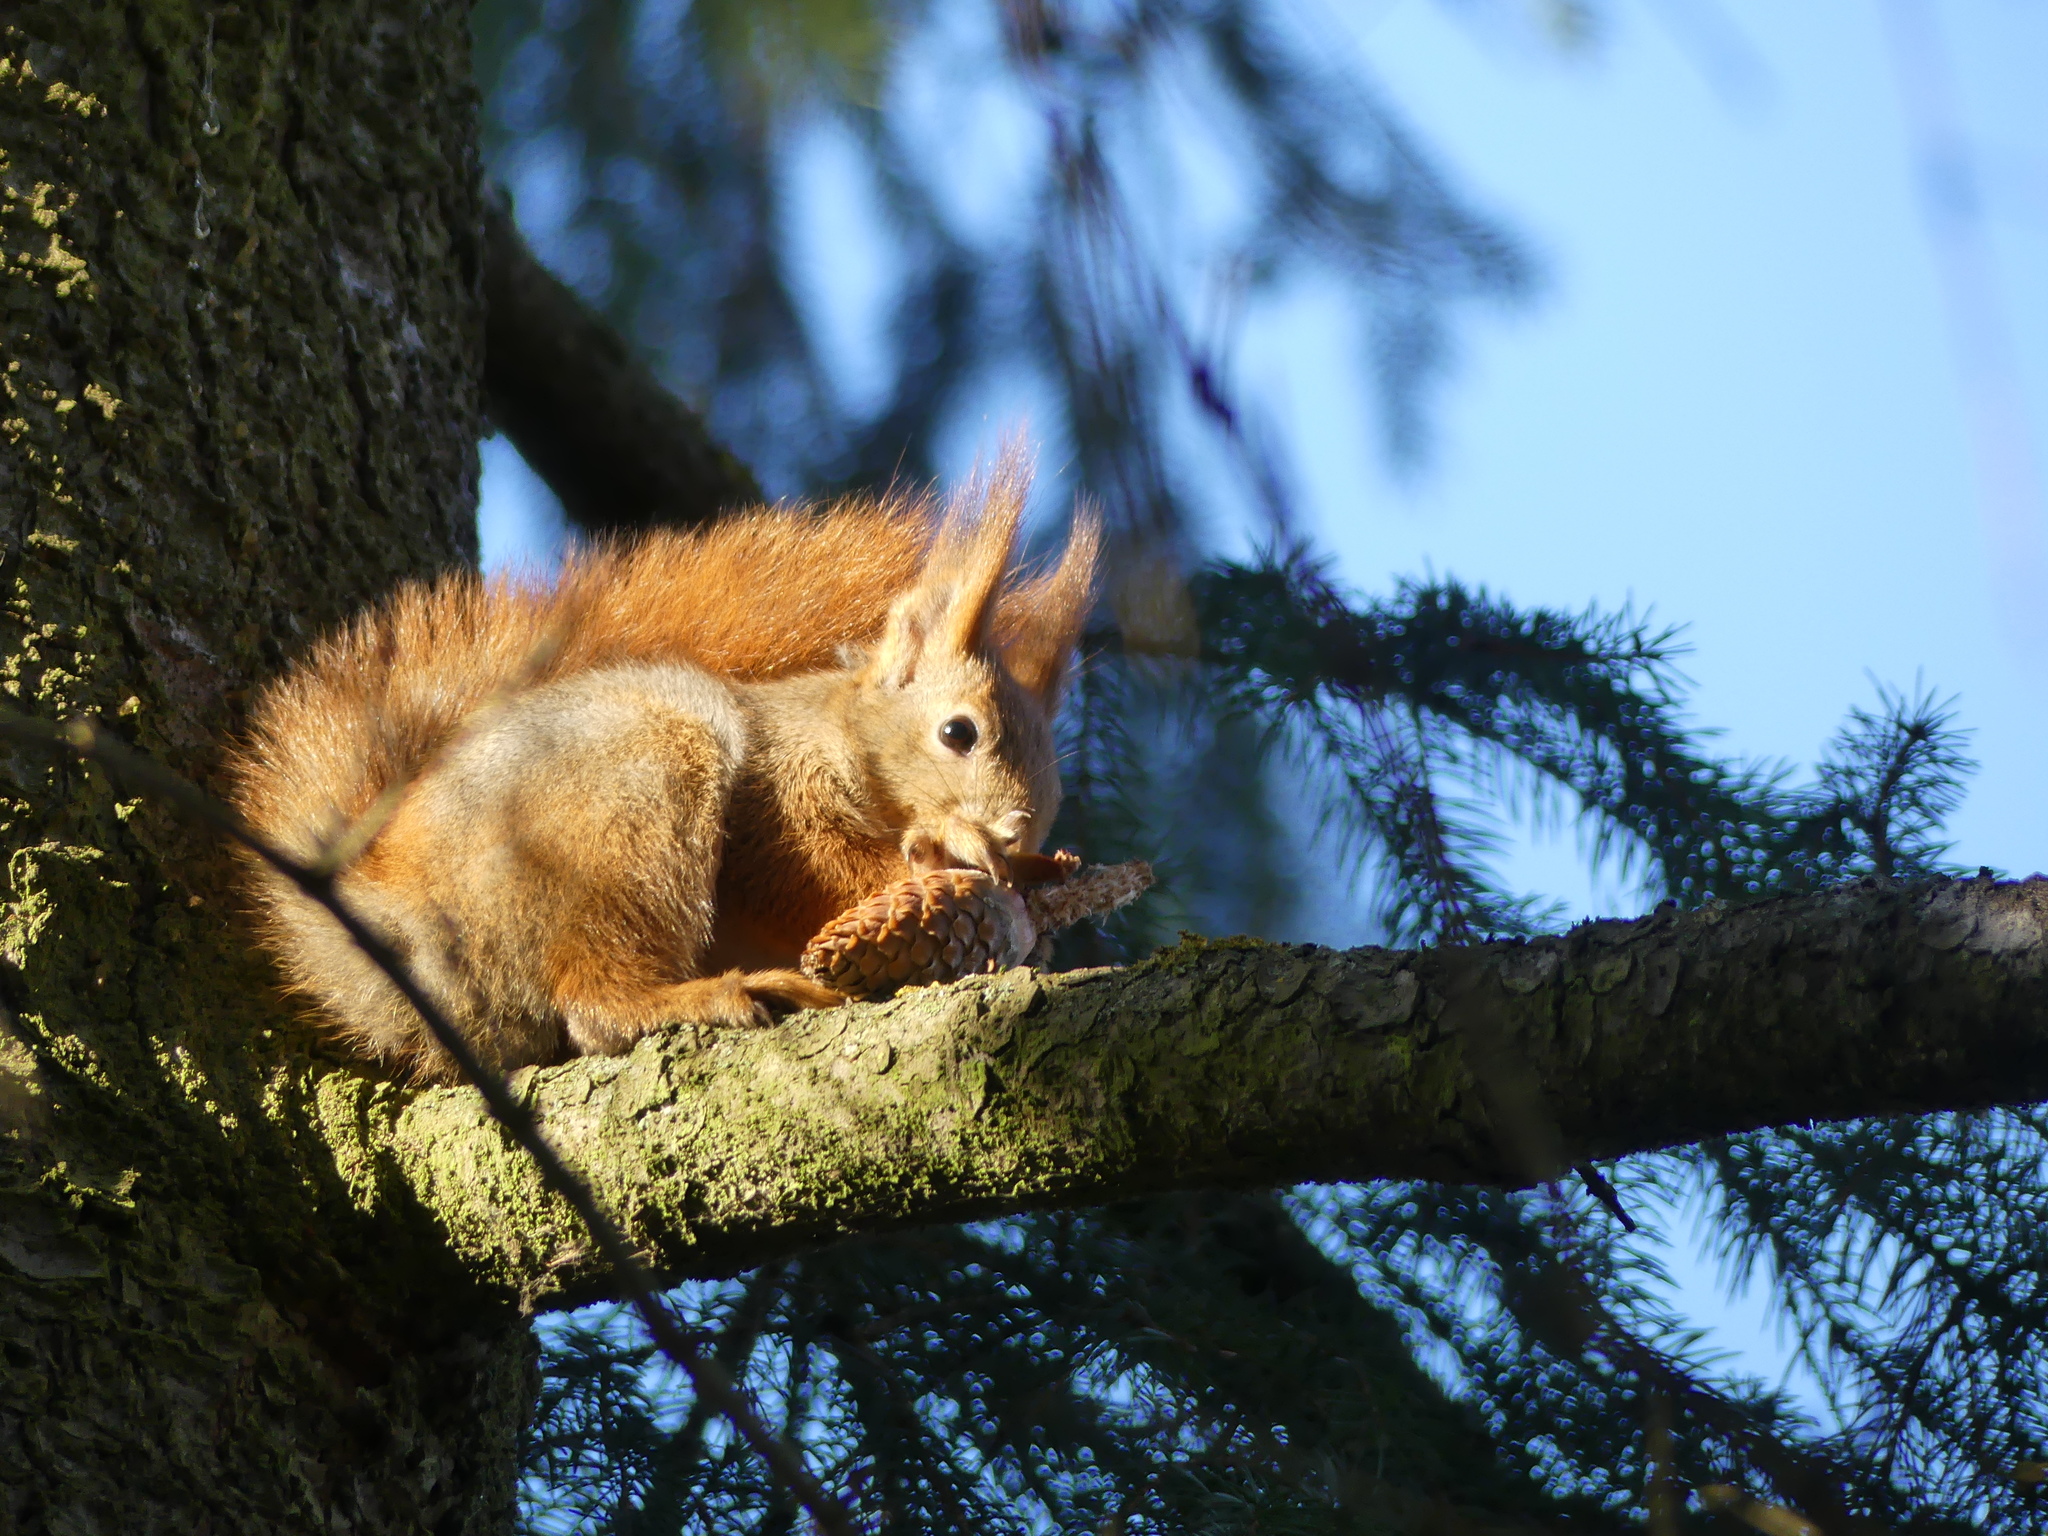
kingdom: Animalia
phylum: Chordata
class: Mammalia
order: Rodentia
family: Sciuridae
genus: Sciurus
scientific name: Sciurus vulgaris
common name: Eurasian red squirrel
